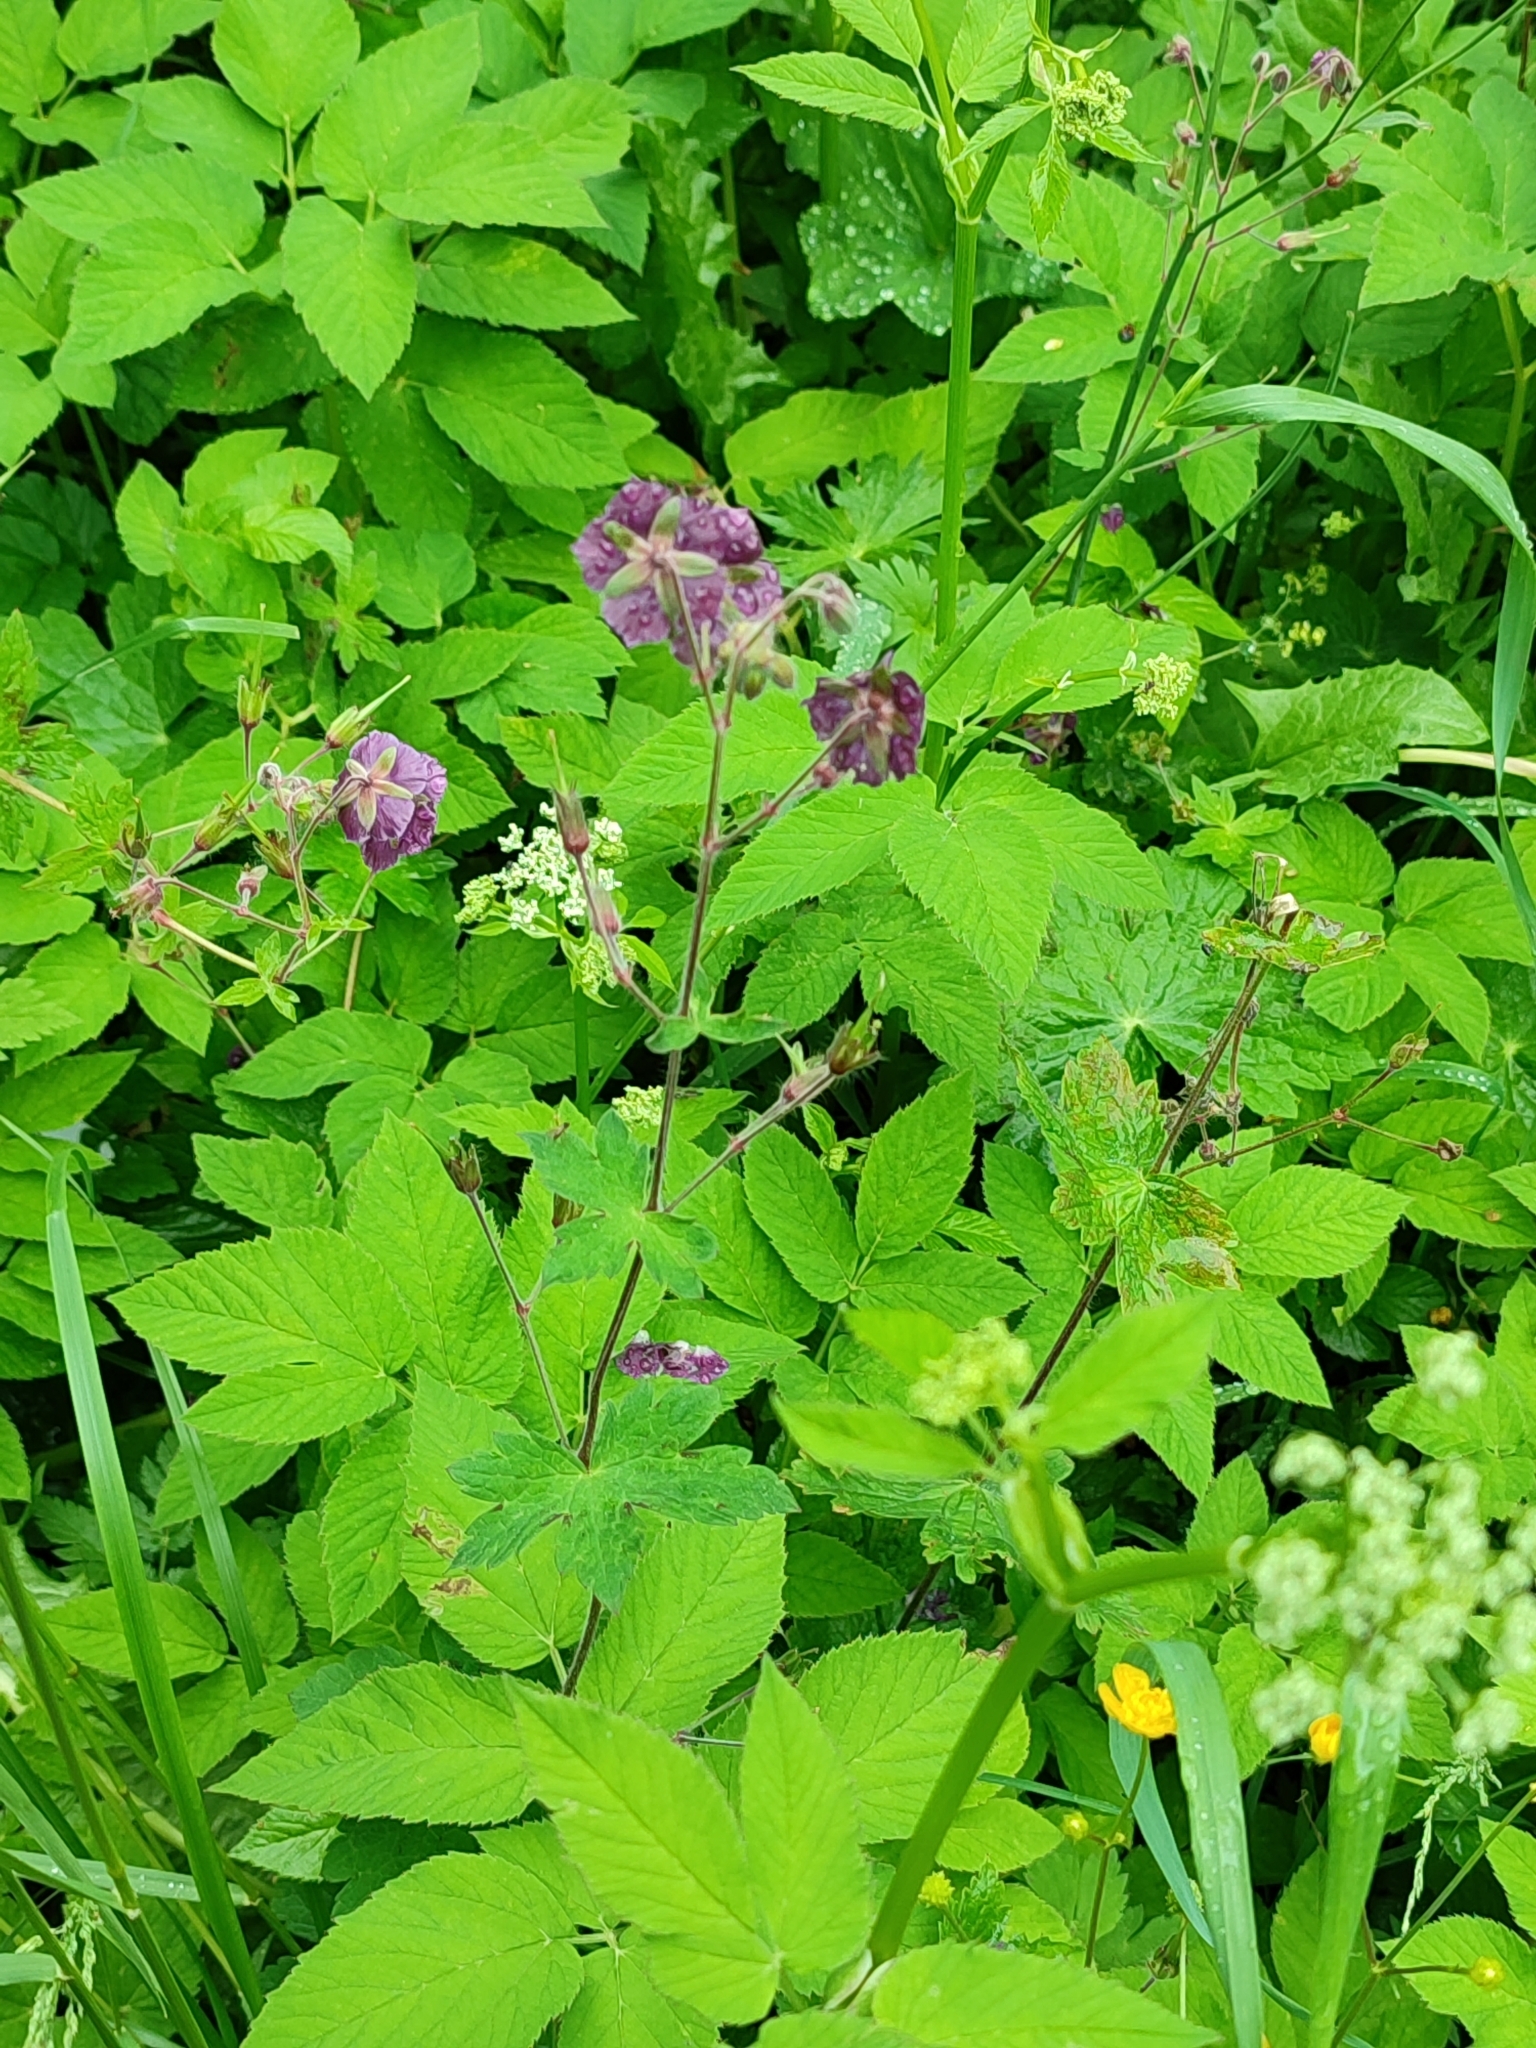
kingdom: Plantae
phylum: Tracheophyta
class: Magnoliopsida
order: Geraniales
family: Geraniaceae
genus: Geranium
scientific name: Geranium phaeum
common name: Dusky crane's-bill
